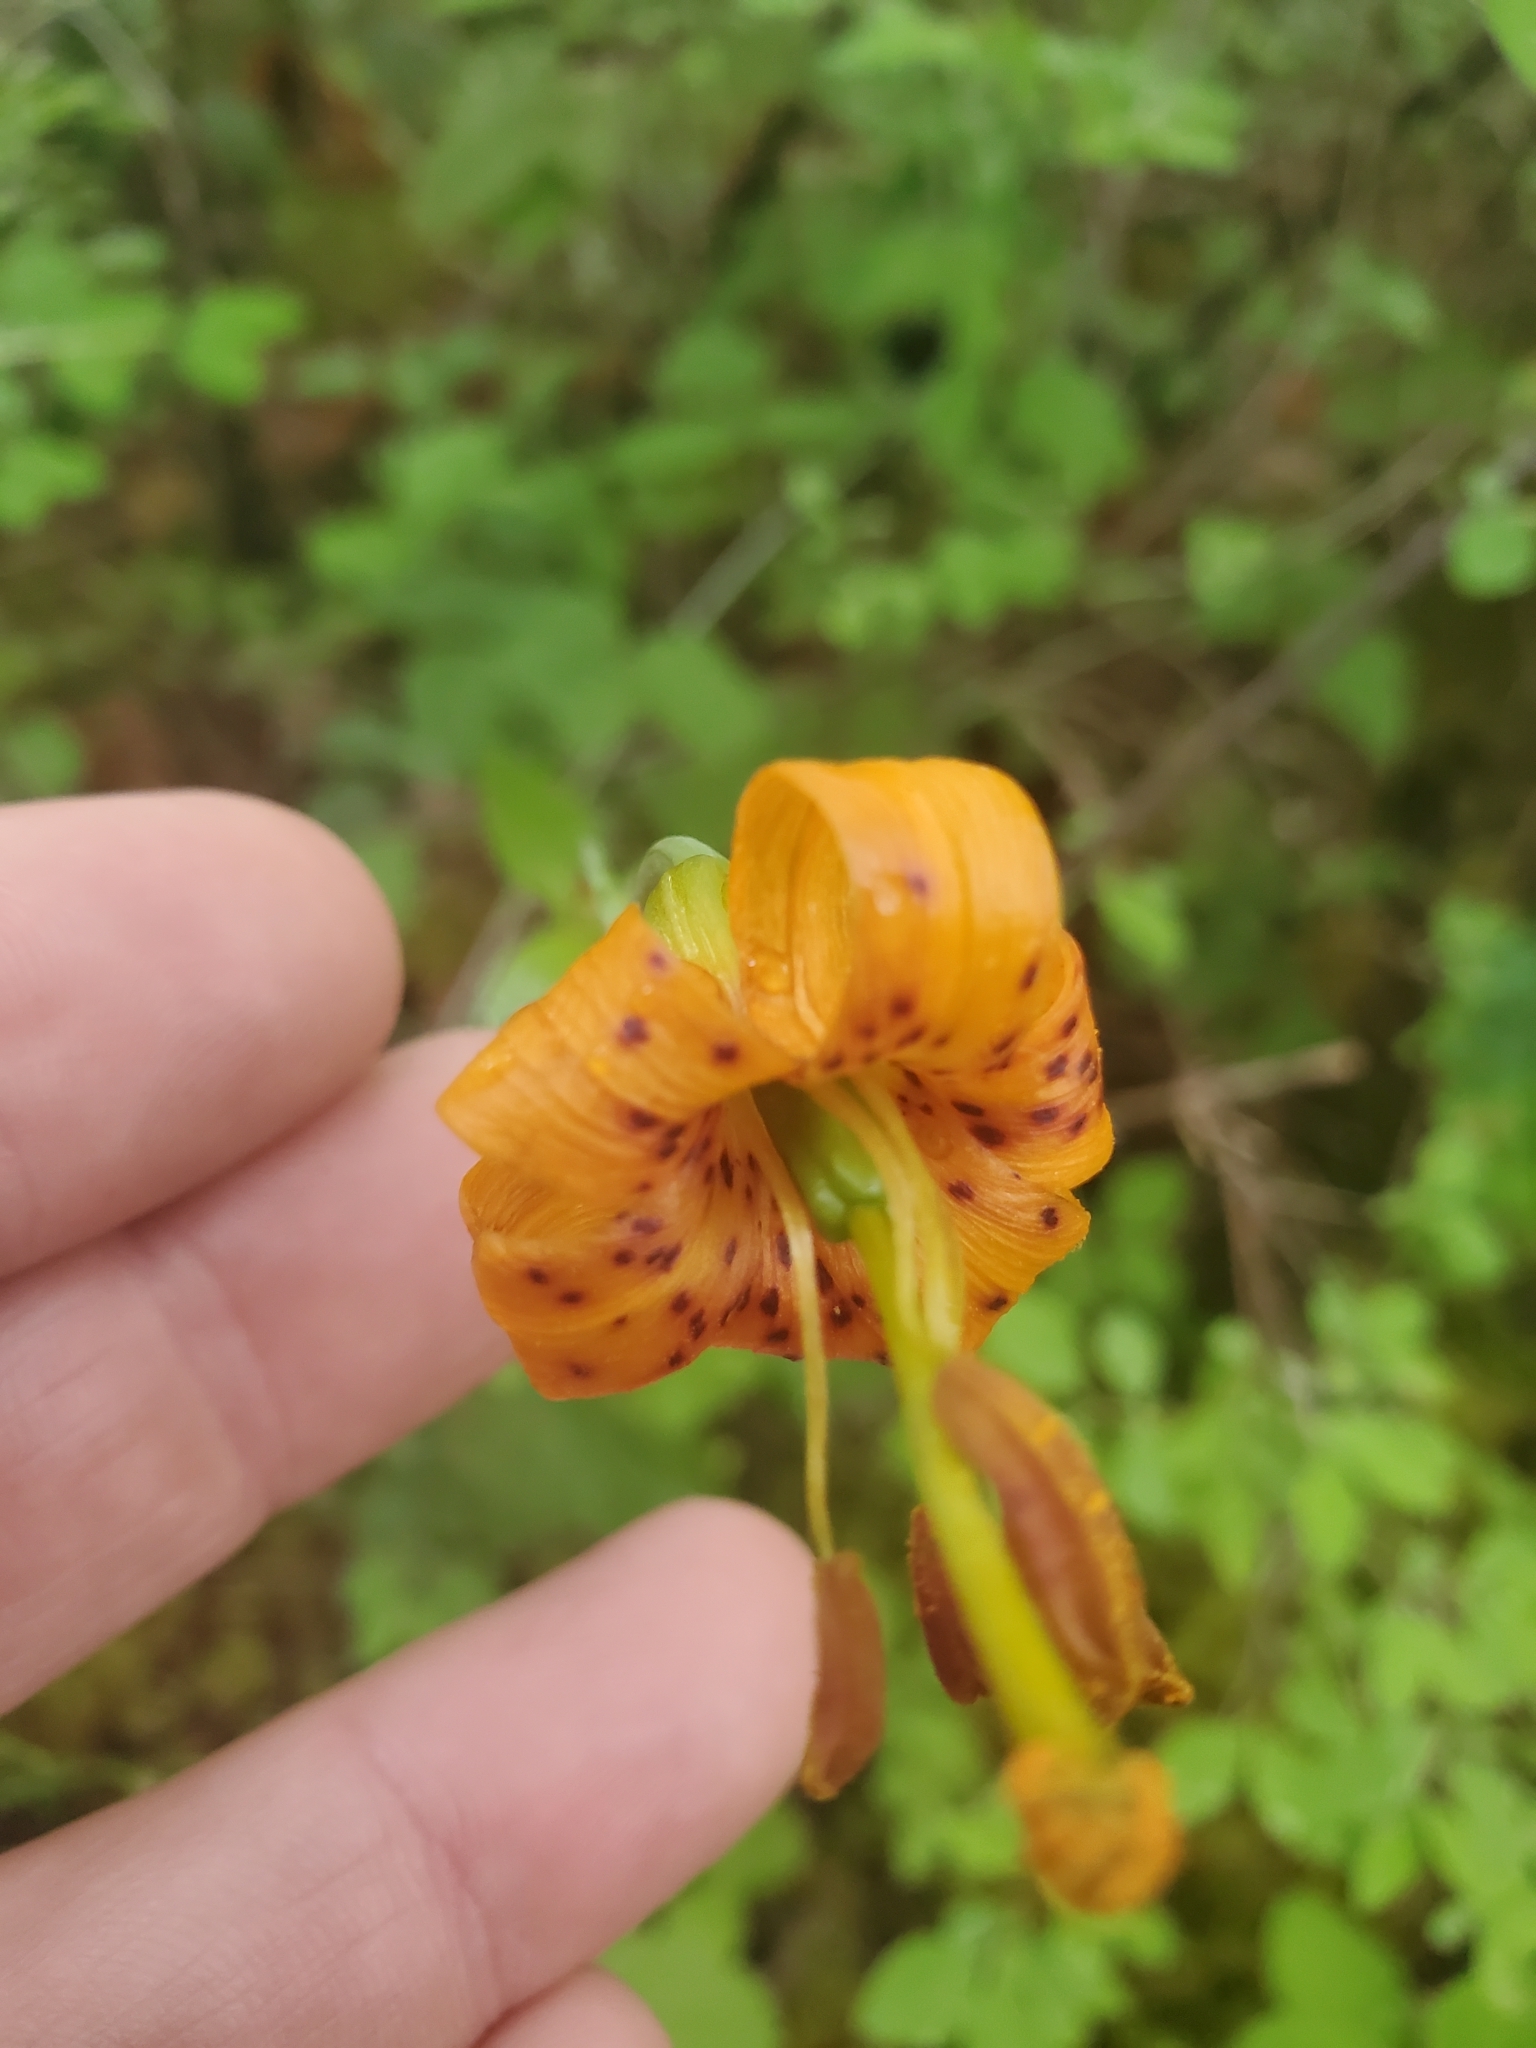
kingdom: Plantae
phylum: Tracheophyta
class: Liliopsida
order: Liliales
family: Liliaceae
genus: Lilium
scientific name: Lilium columbianum
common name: Columbia lily
